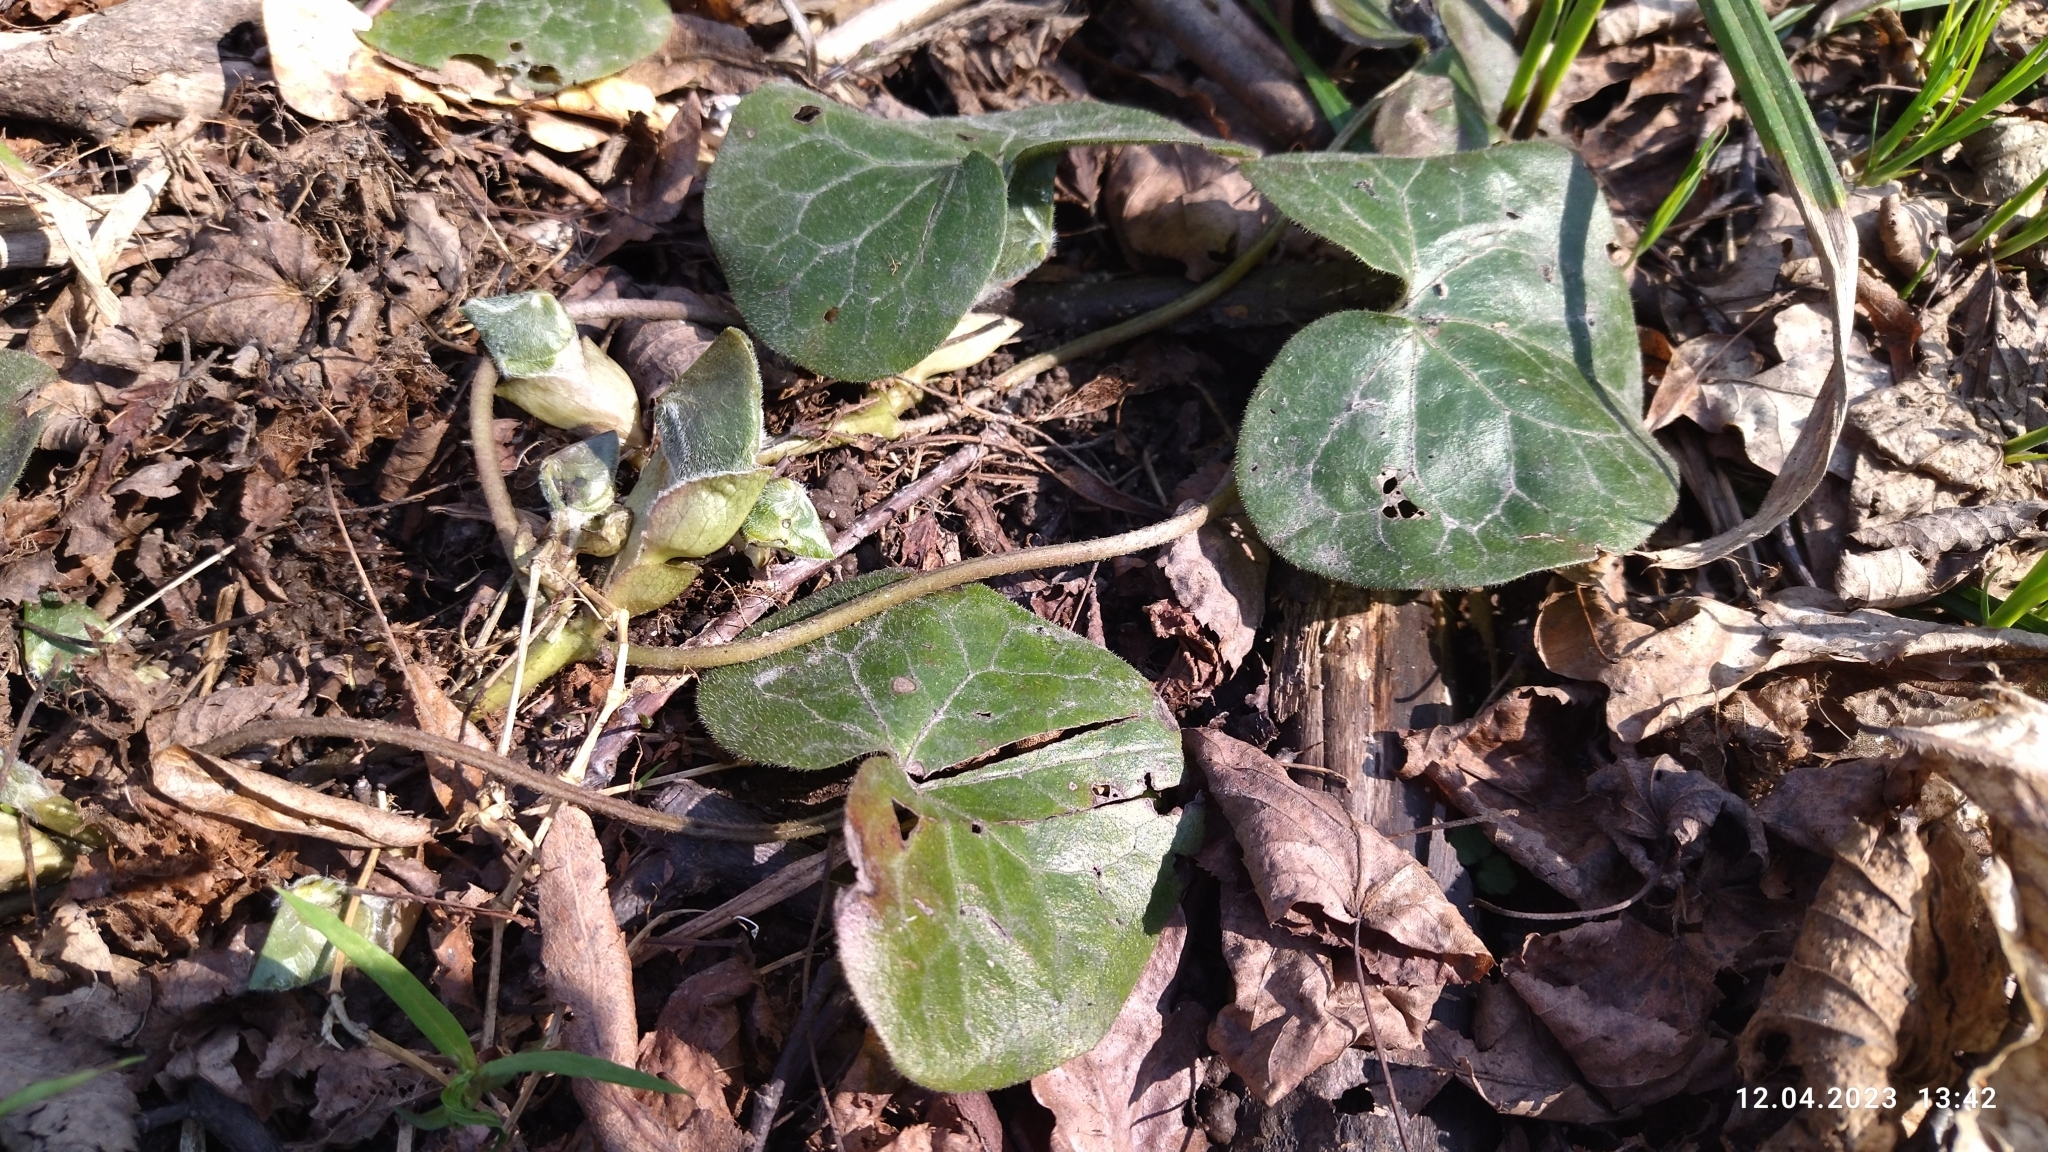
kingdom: Plantae
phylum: Tracheophyta
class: Magnoliopsida
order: Piperales
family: Aristolochiaceae
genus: Asarum
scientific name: Asarum europaeum
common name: Asarabacca
